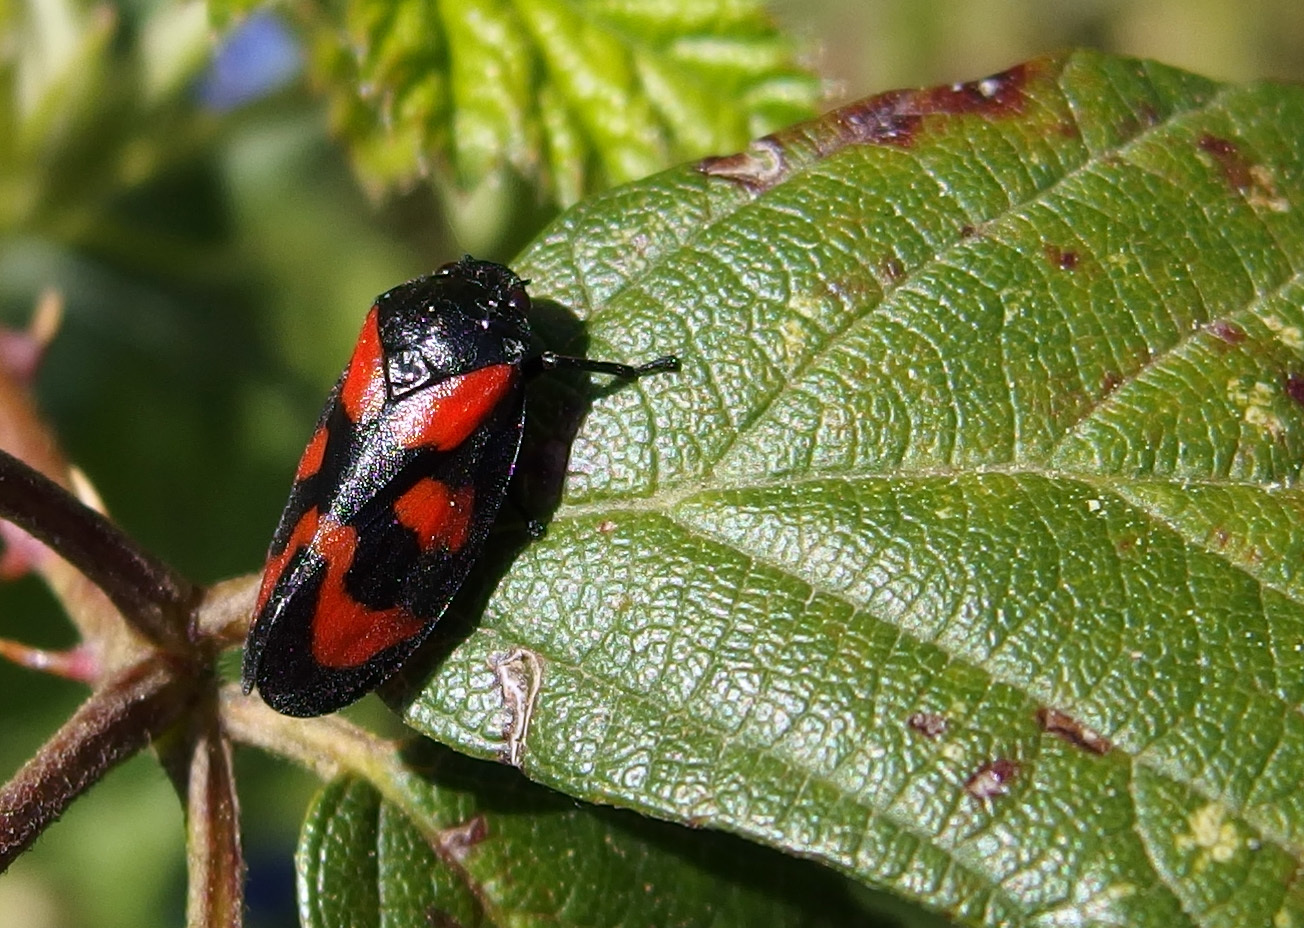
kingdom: Animalia
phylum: Arthropoda
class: Insecta
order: Hemiptera
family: Cercopidae
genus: Cercopis
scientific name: Cercopis vulnerata
